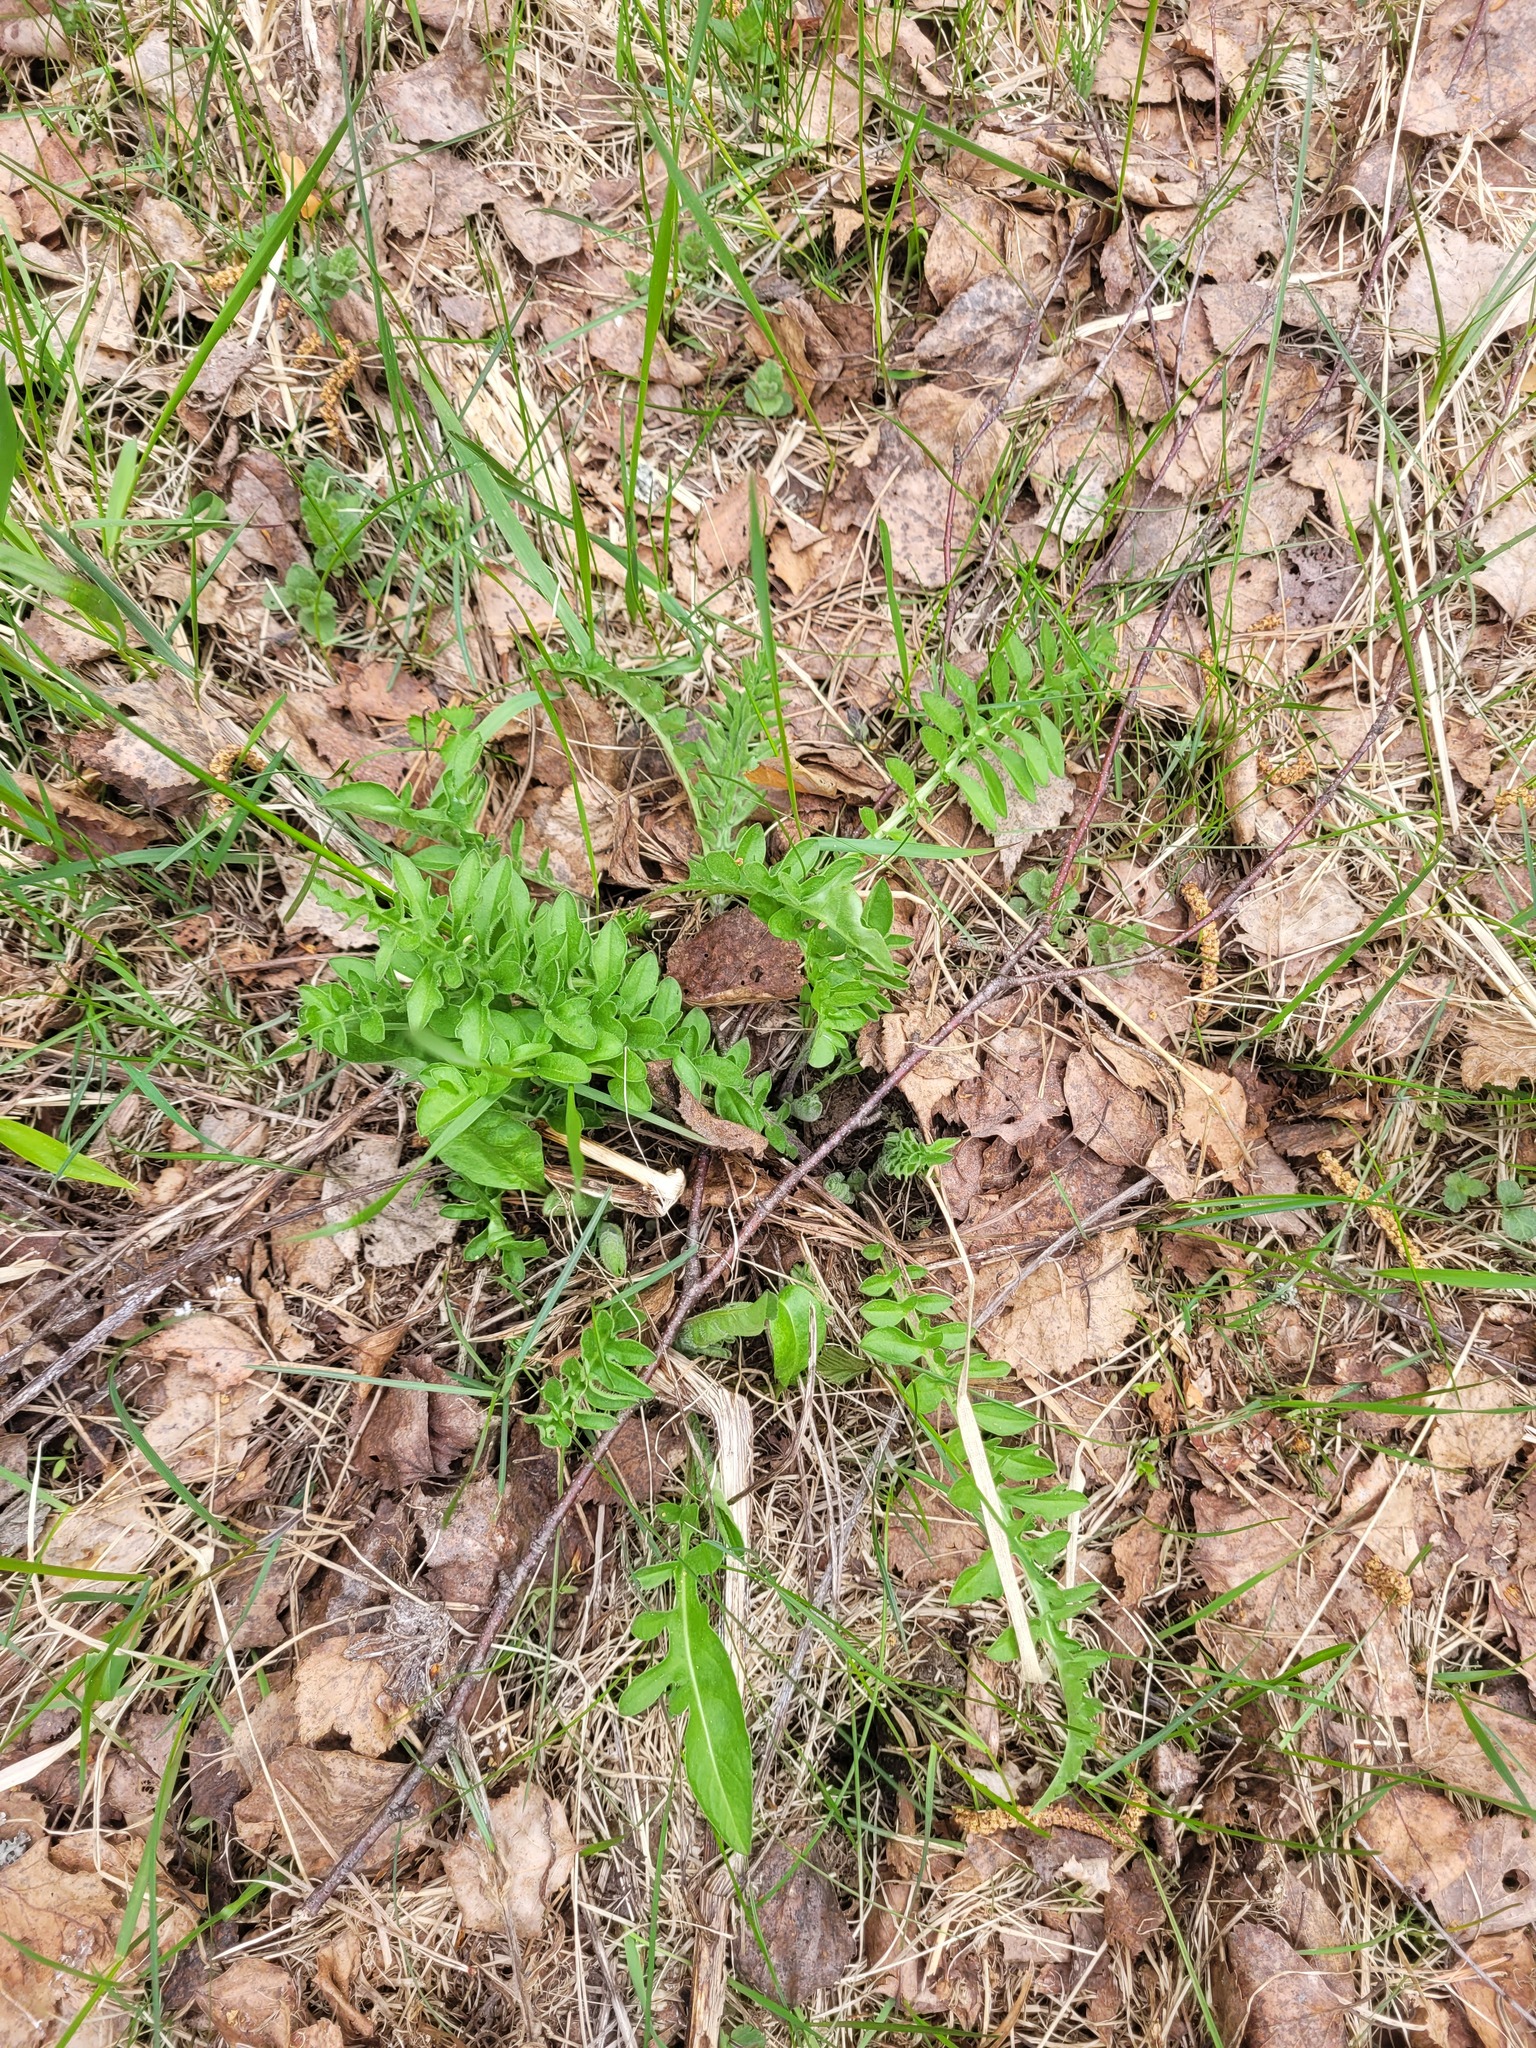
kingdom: Plantae
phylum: Tracheophyta
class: Magnoliopsida
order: Asterales
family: Asteraceae
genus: Centaurea
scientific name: Centaurea scabiosa
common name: Greater knapweed
